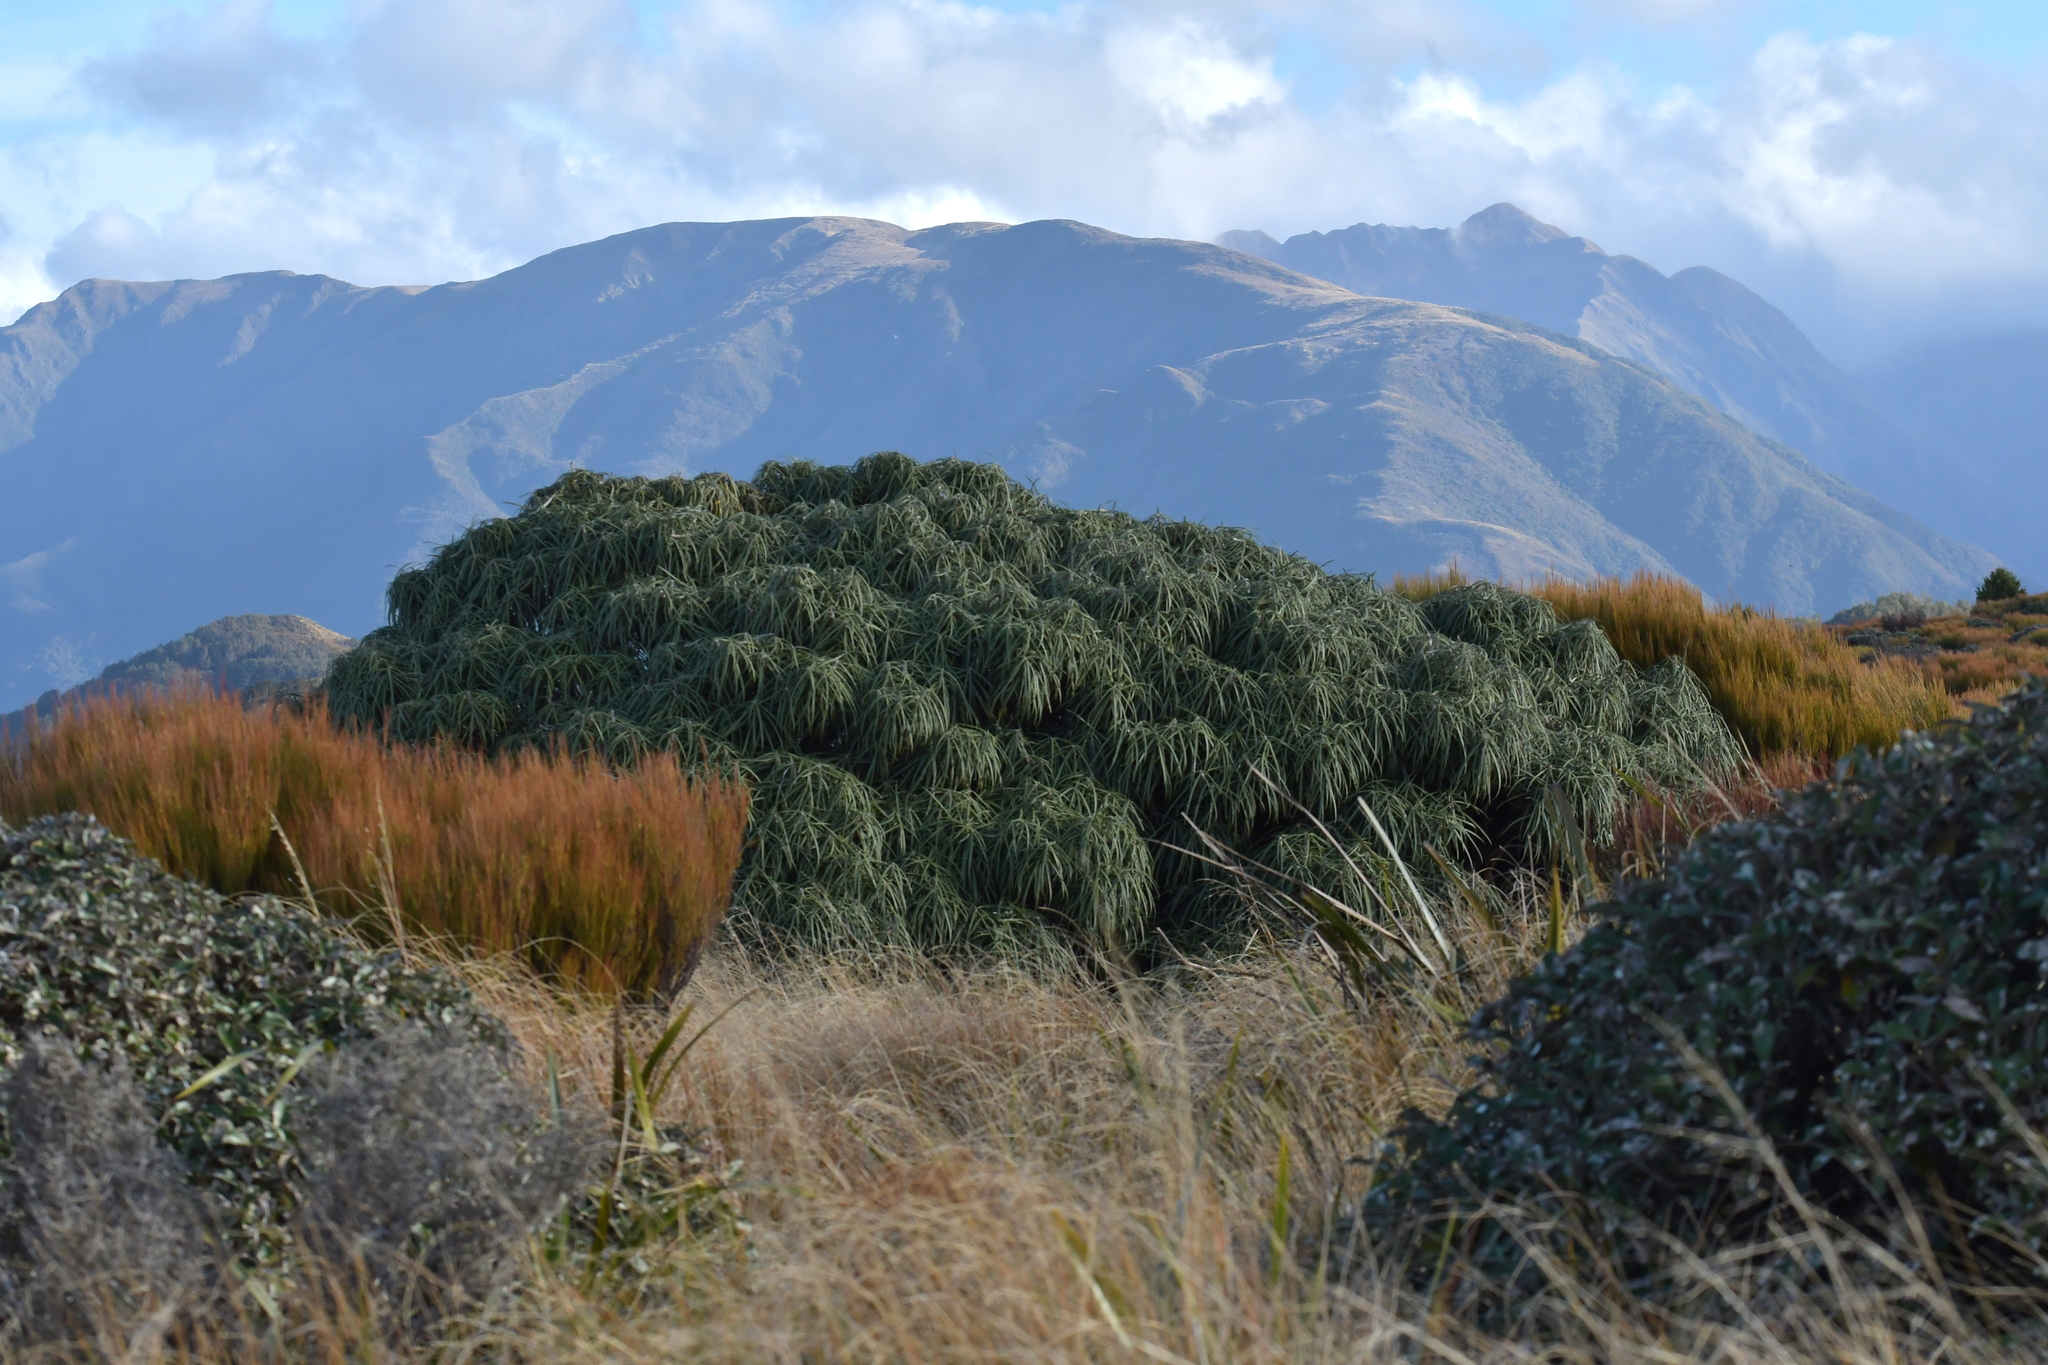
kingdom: Plantae
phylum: Tracheophyta
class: Magnoliopsida
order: Asterales
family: Asteraceae
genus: Olearia
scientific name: Olearia lacunosa
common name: Lancewood tree daisy
